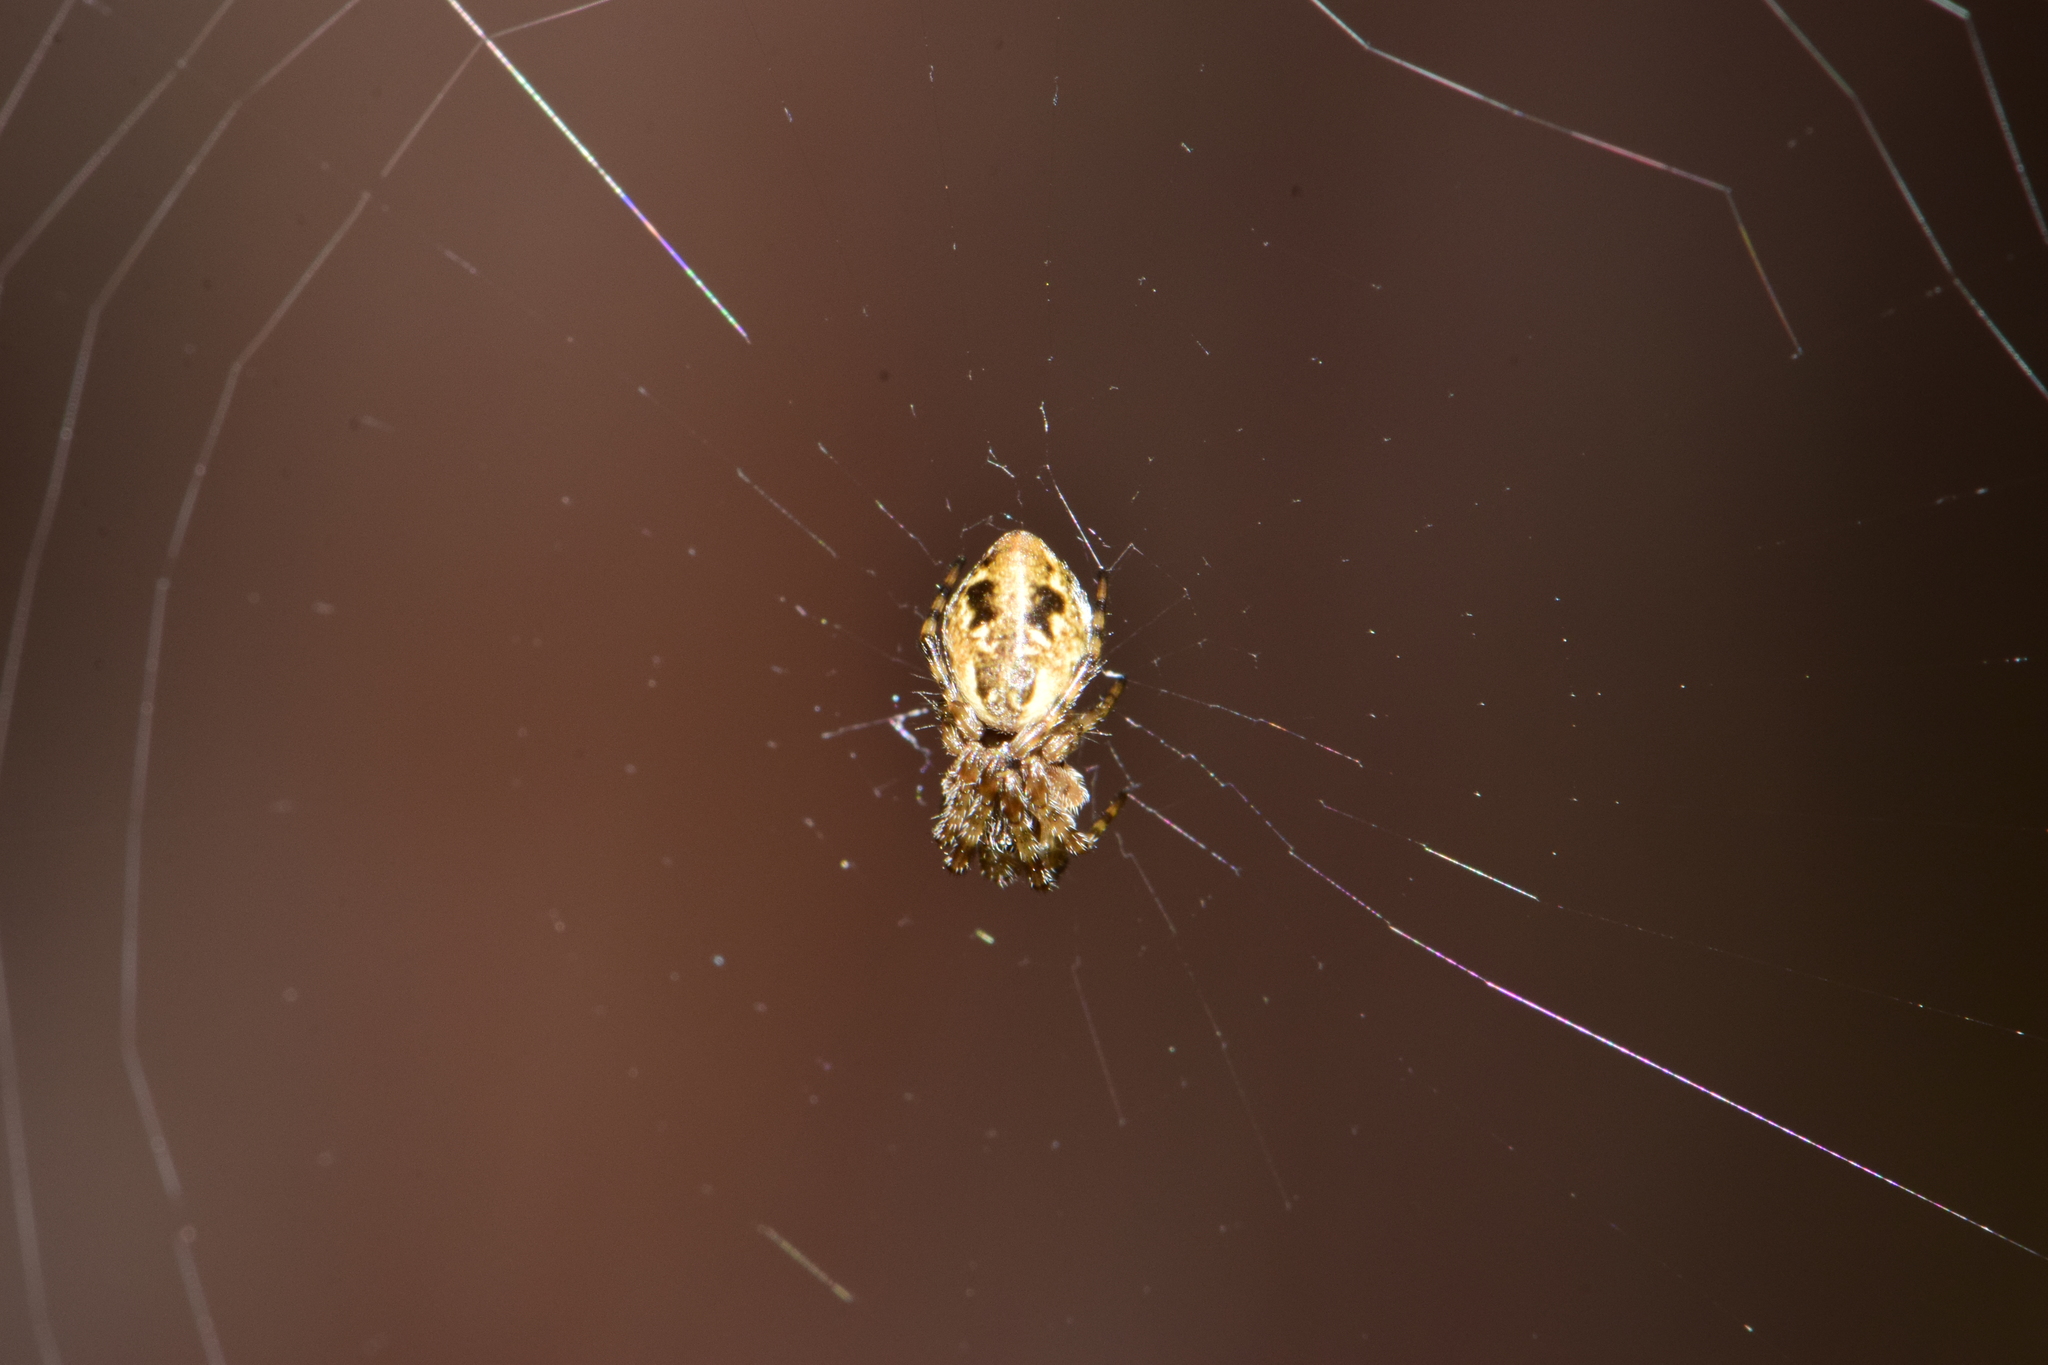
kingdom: Animalia
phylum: Arthropoda
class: Arachnida
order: Araneae
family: Araneidae
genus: Cyclosa
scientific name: Cyclosa conica
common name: Conical trashline orbweaver
